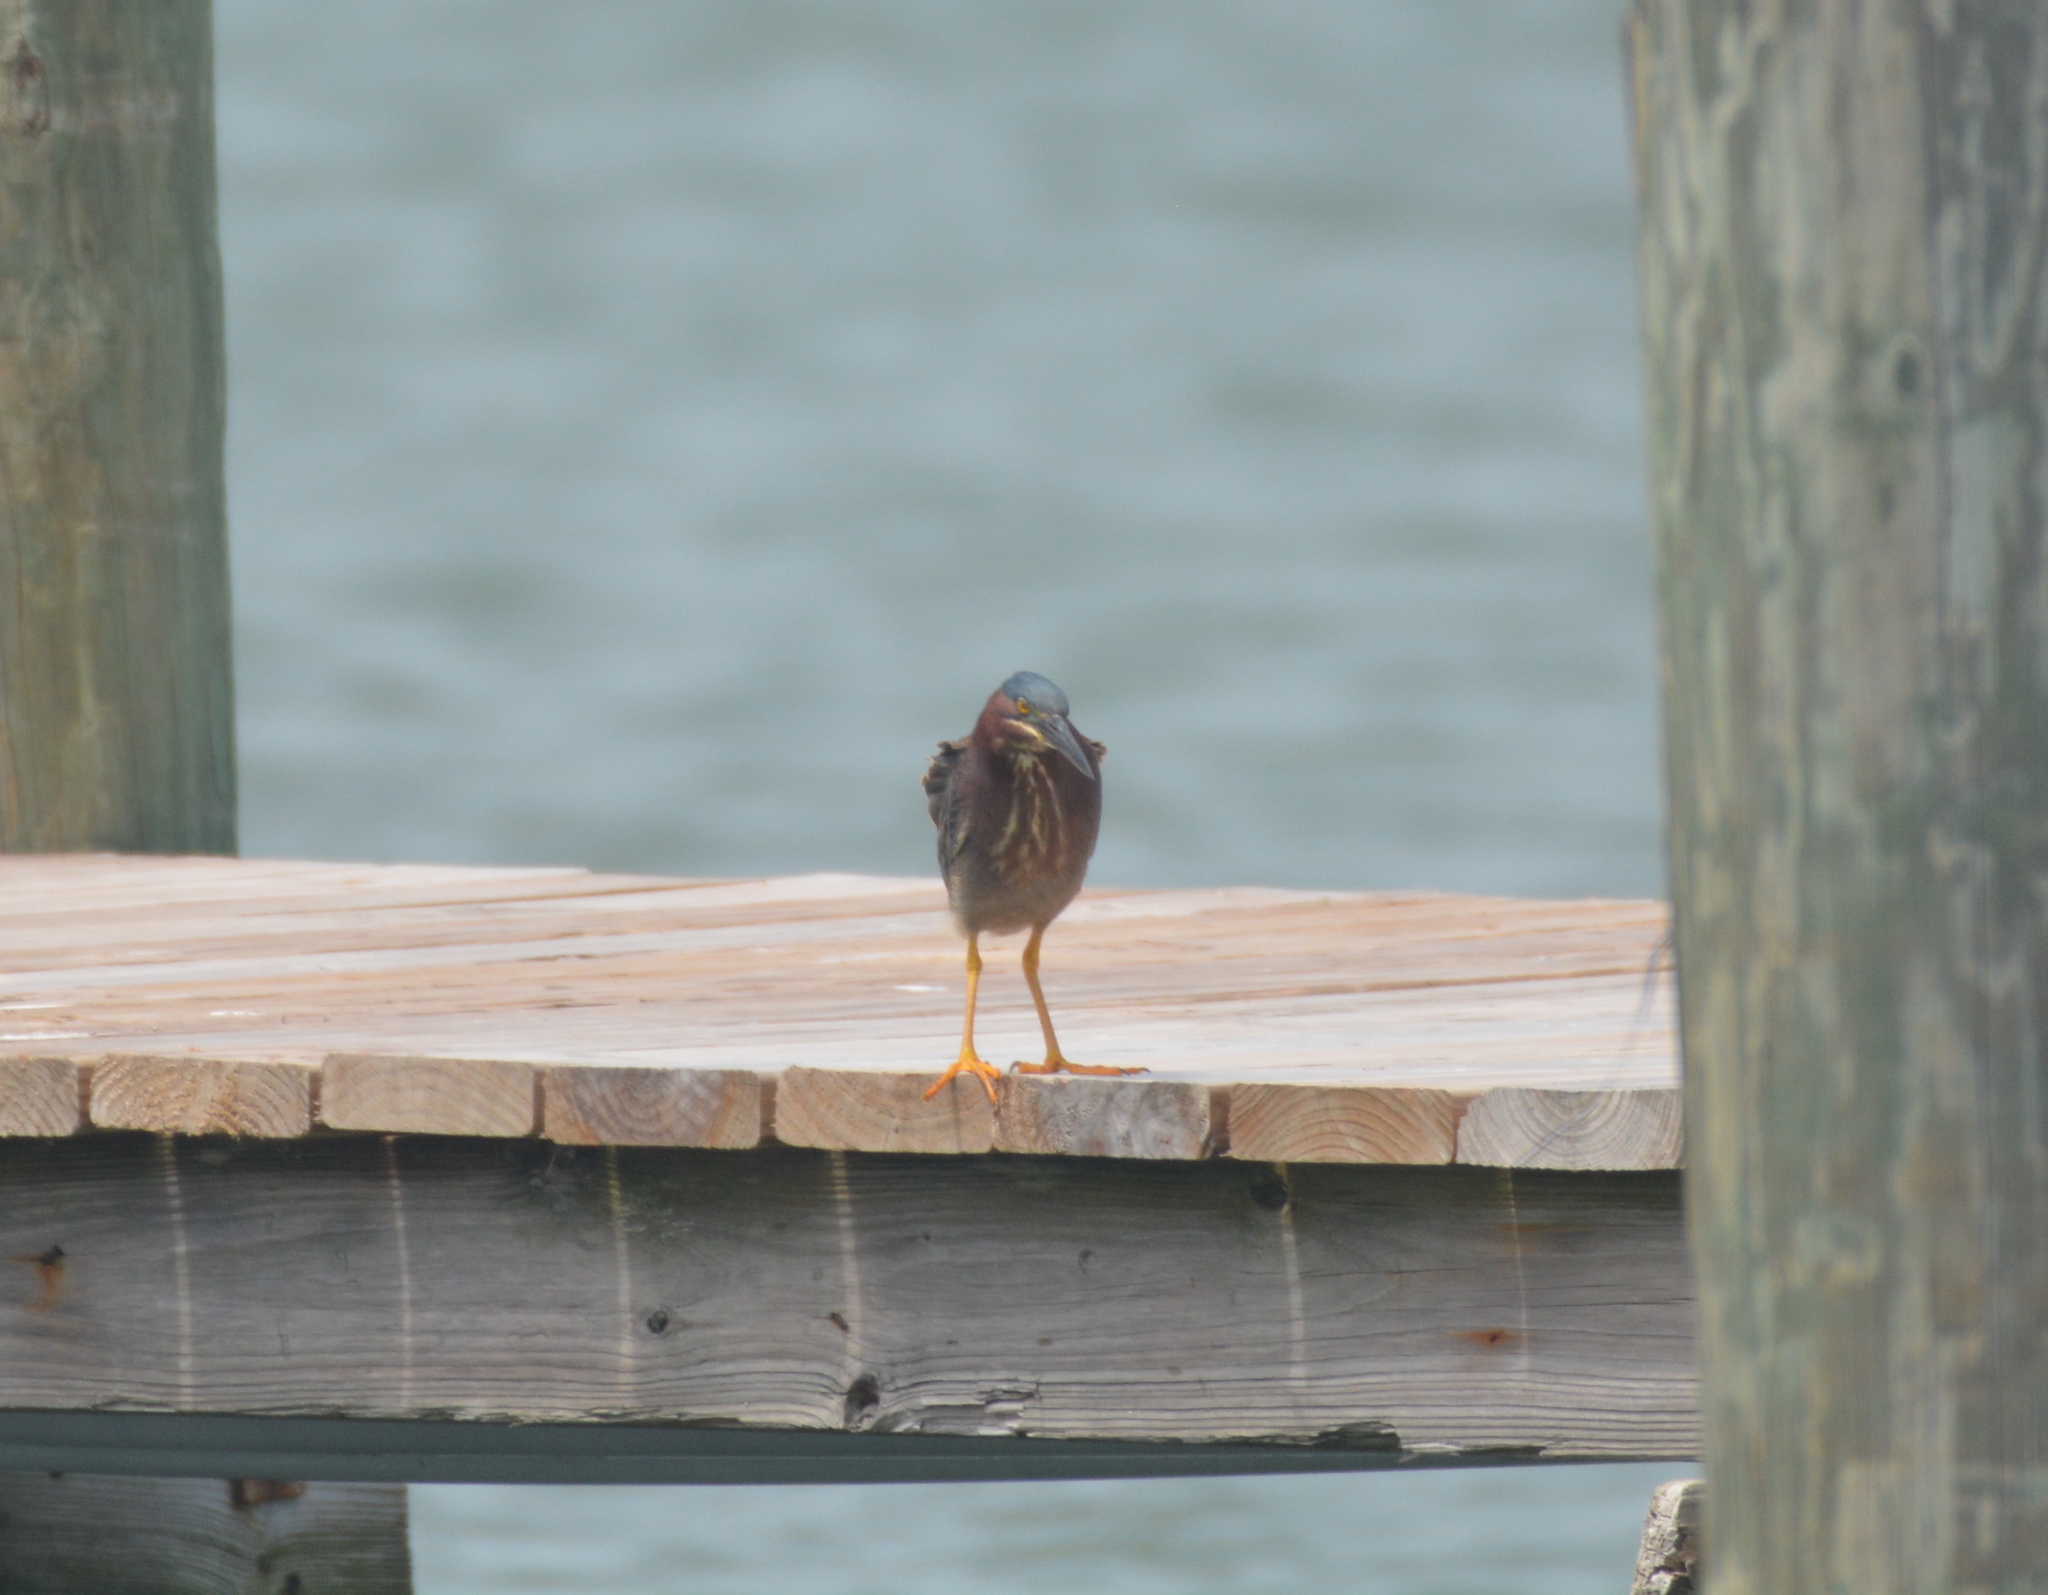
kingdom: Animalia
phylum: Chordata
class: Aves
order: Pelecaniformes
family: Ardeidae
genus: Butorides
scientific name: Butorides virescens
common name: Green heron
